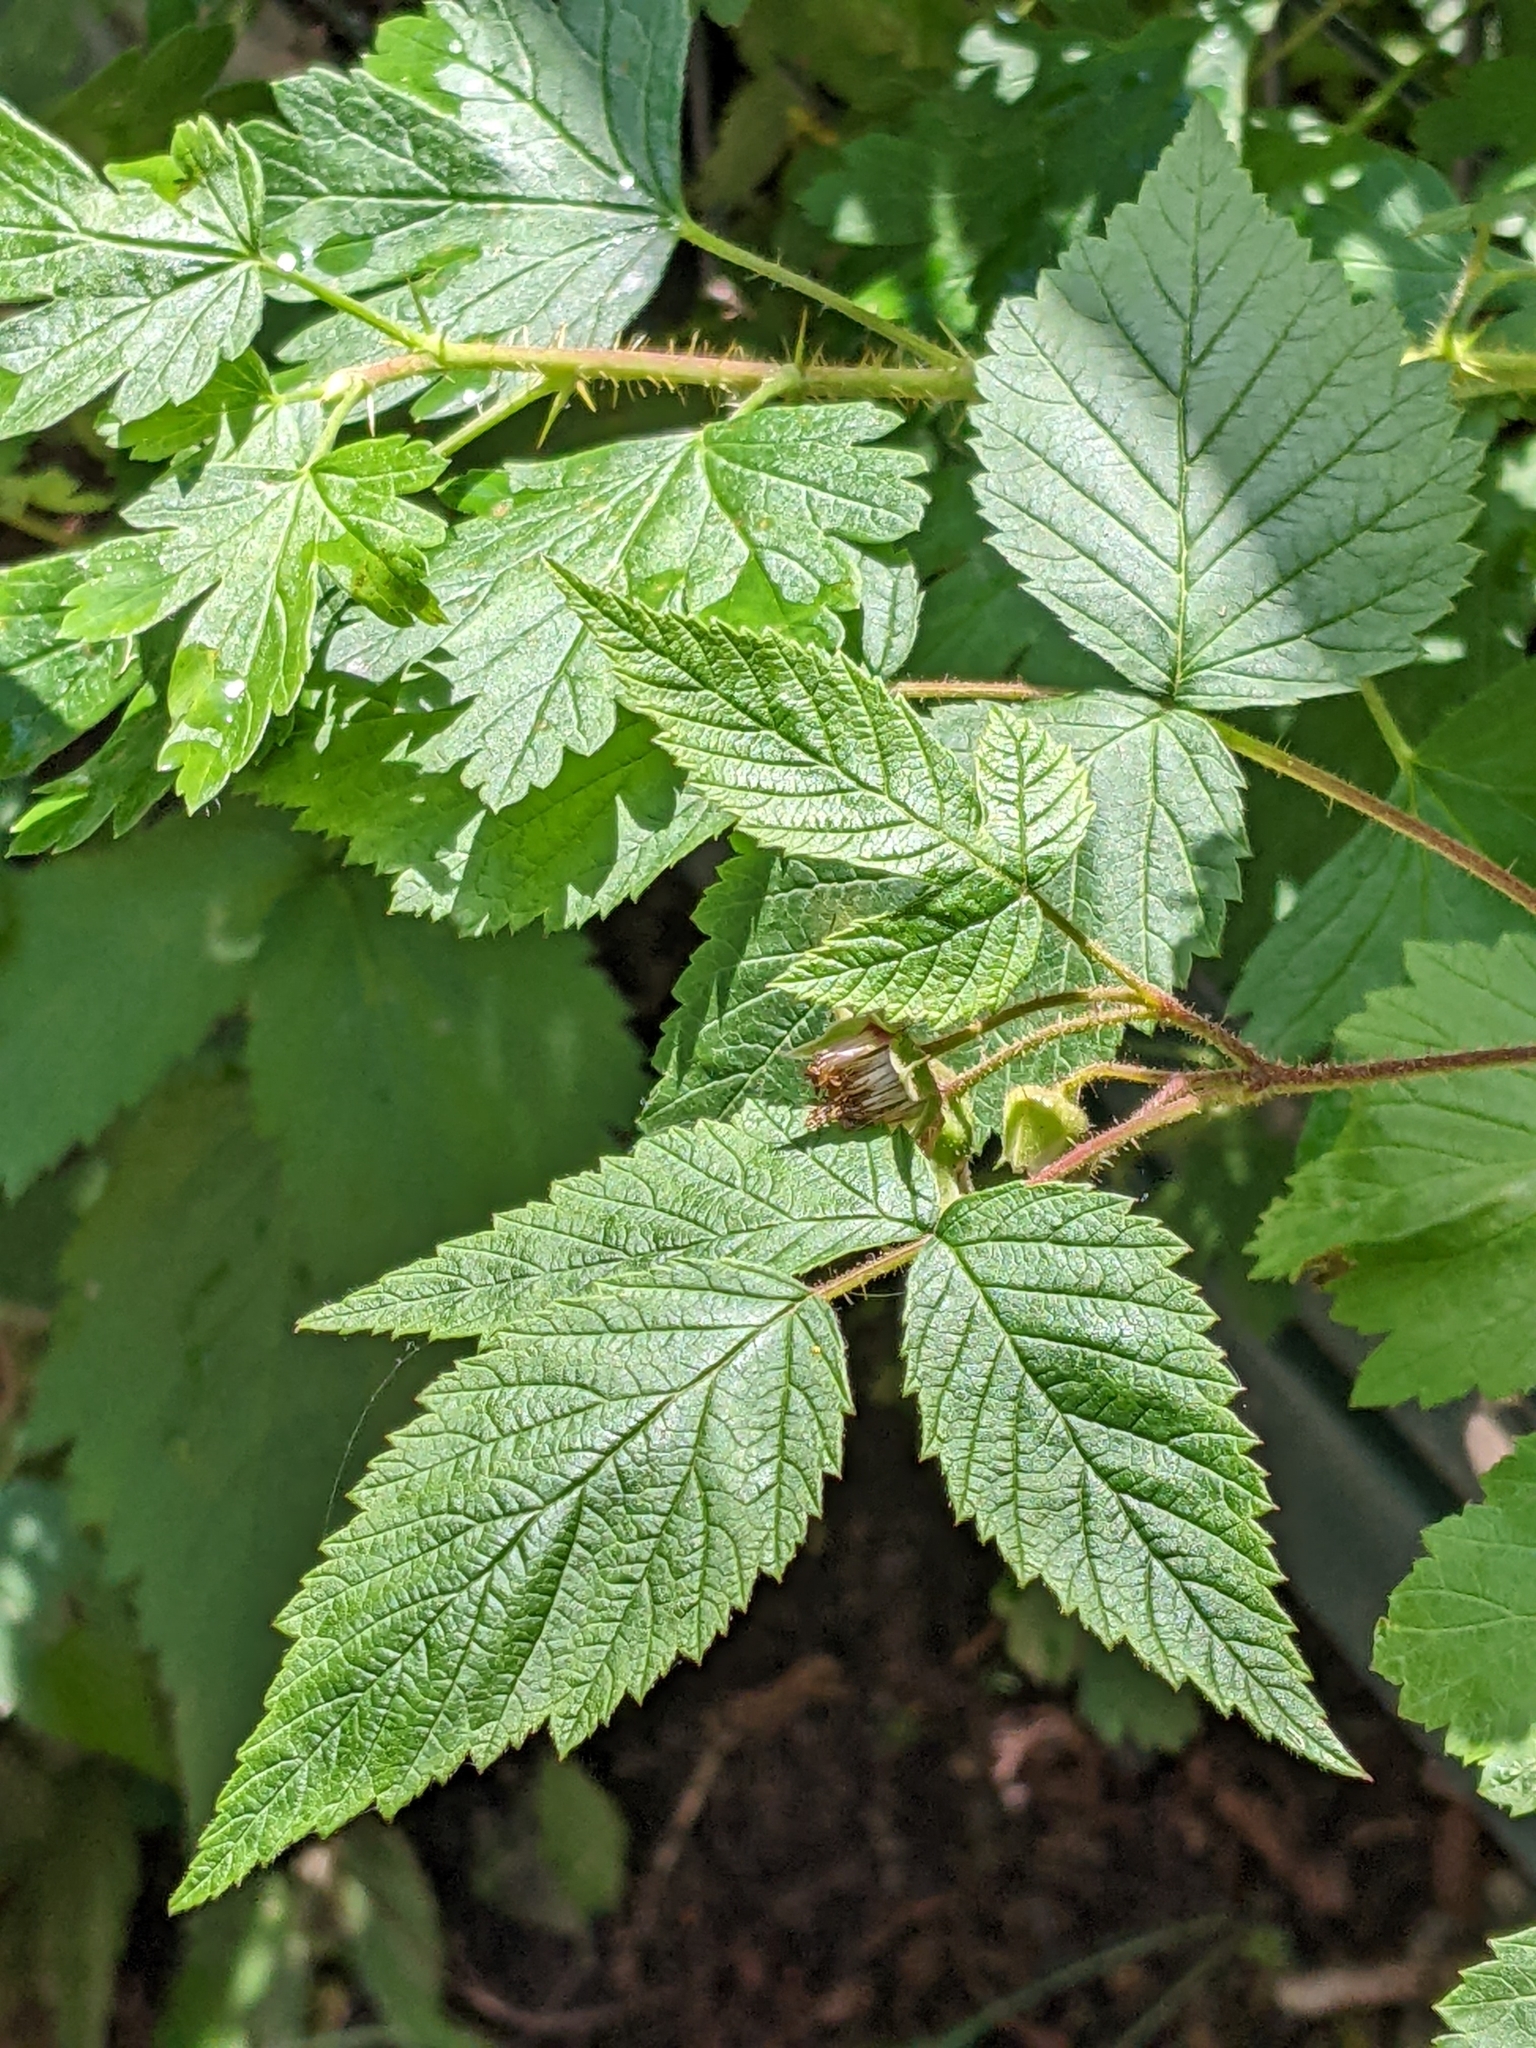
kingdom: Plantae
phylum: Tracheophyta
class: Magnoliopsida
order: Rosales
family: Rosaceae
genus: Rubus
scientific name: Rubus idaeus
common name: Raspberry
